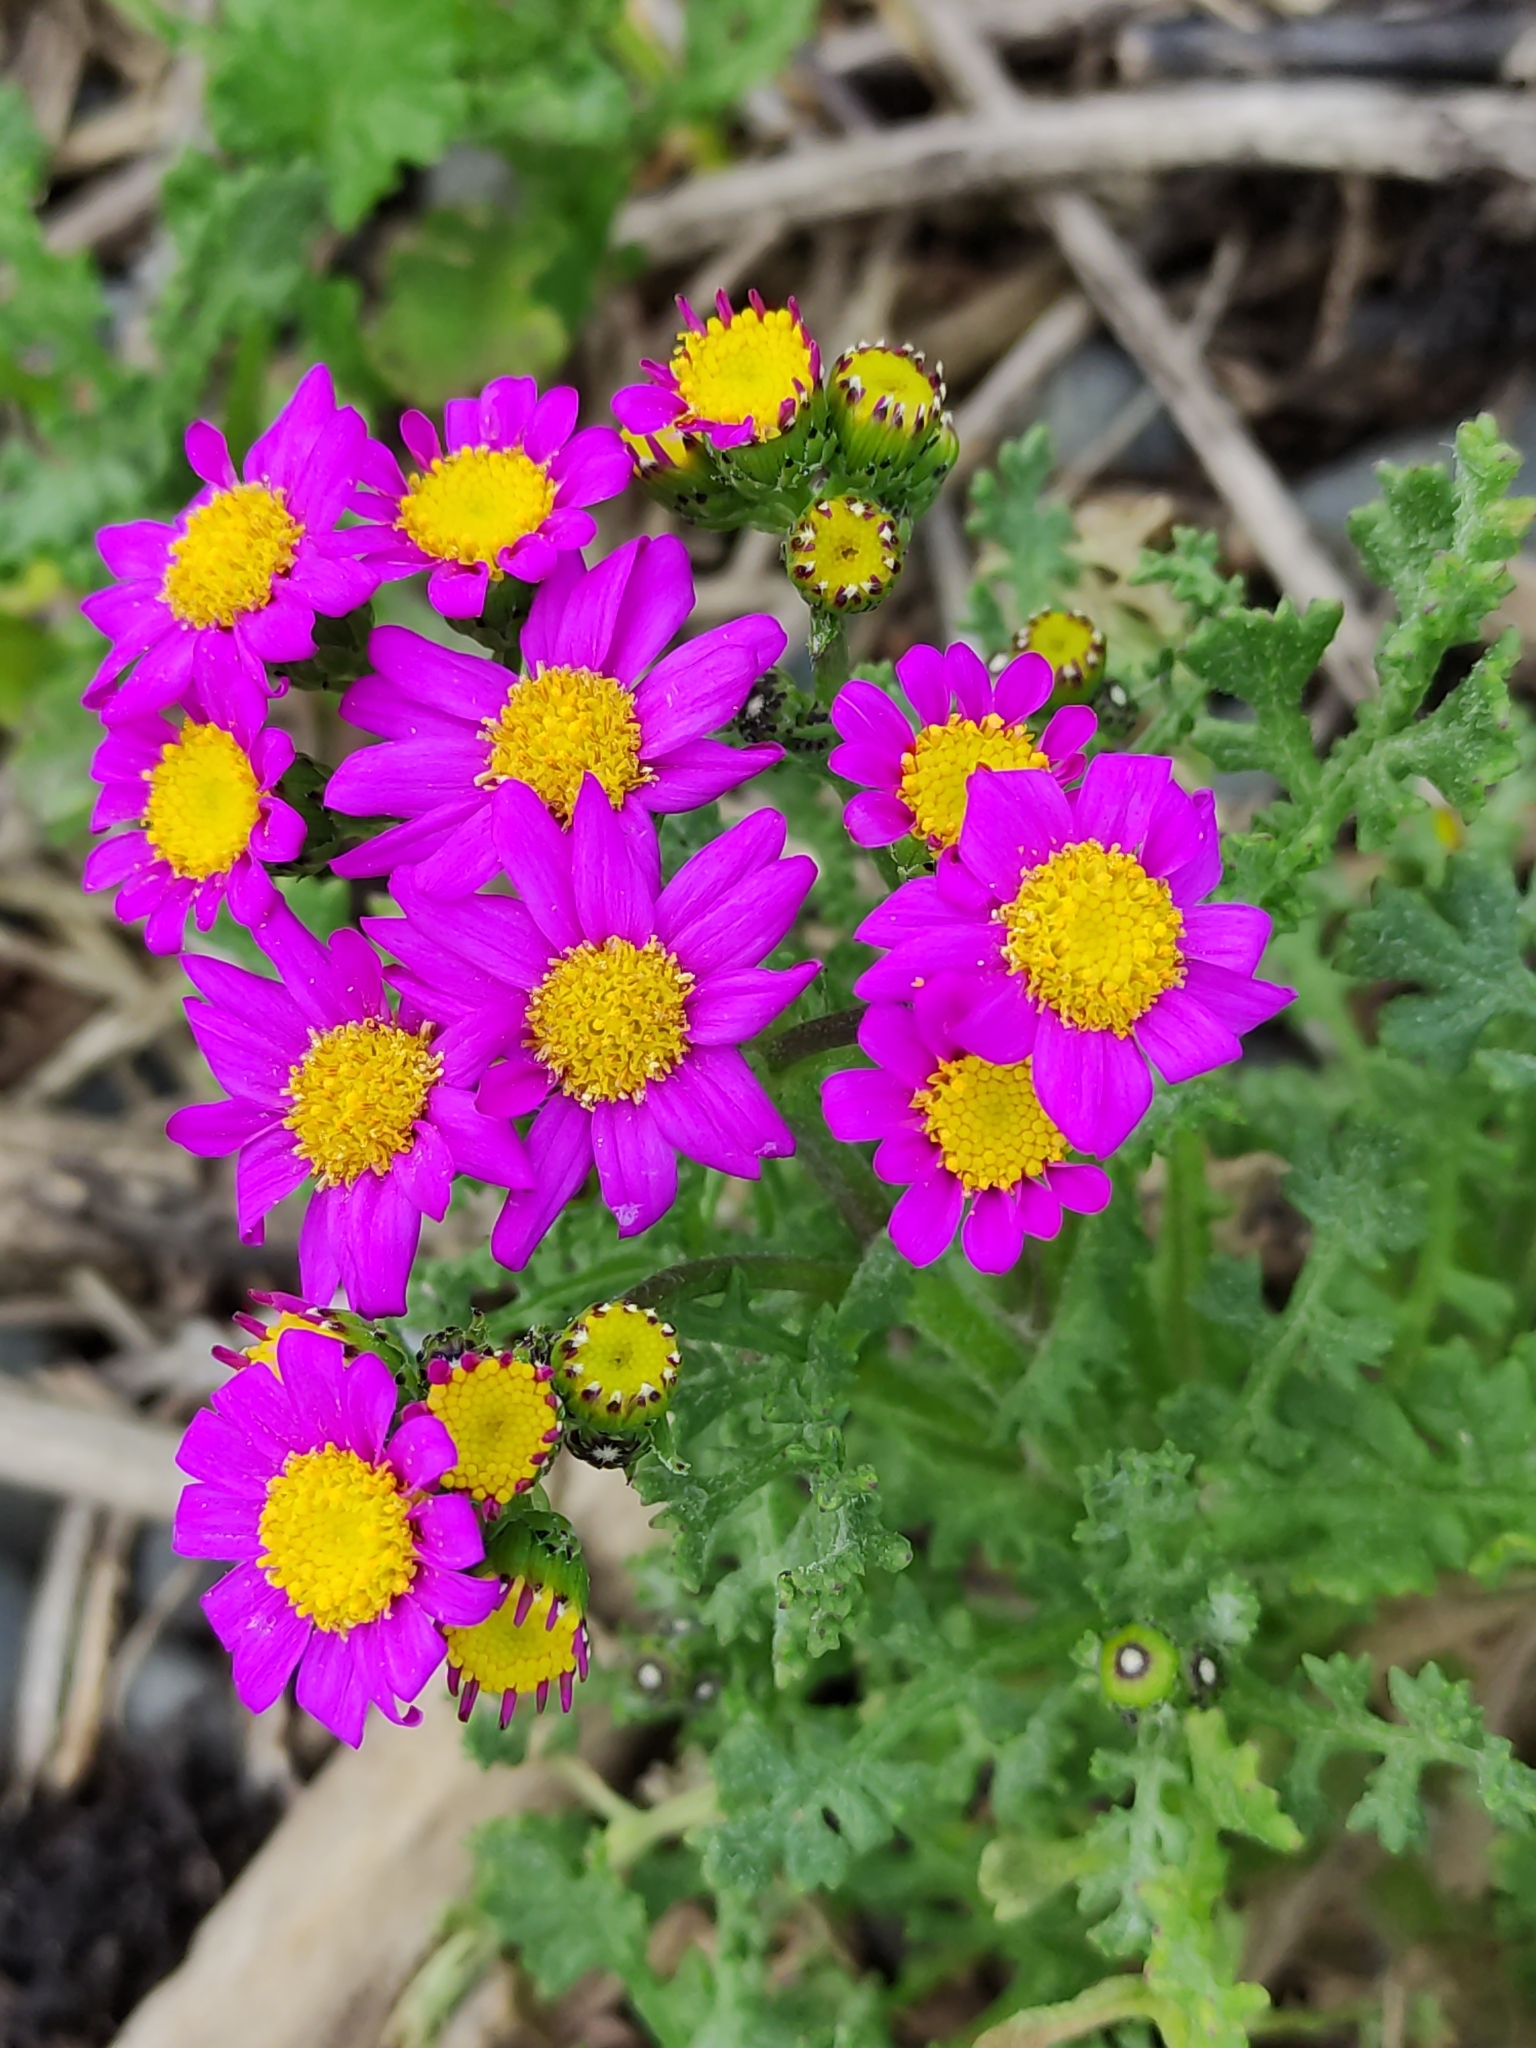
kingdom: Plantae
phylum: Tracheophyta
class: Magnoliopsida
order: Asterales
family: Asteraceae
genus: Senecio
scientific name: Senecio elegans
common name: Purple groundsel
